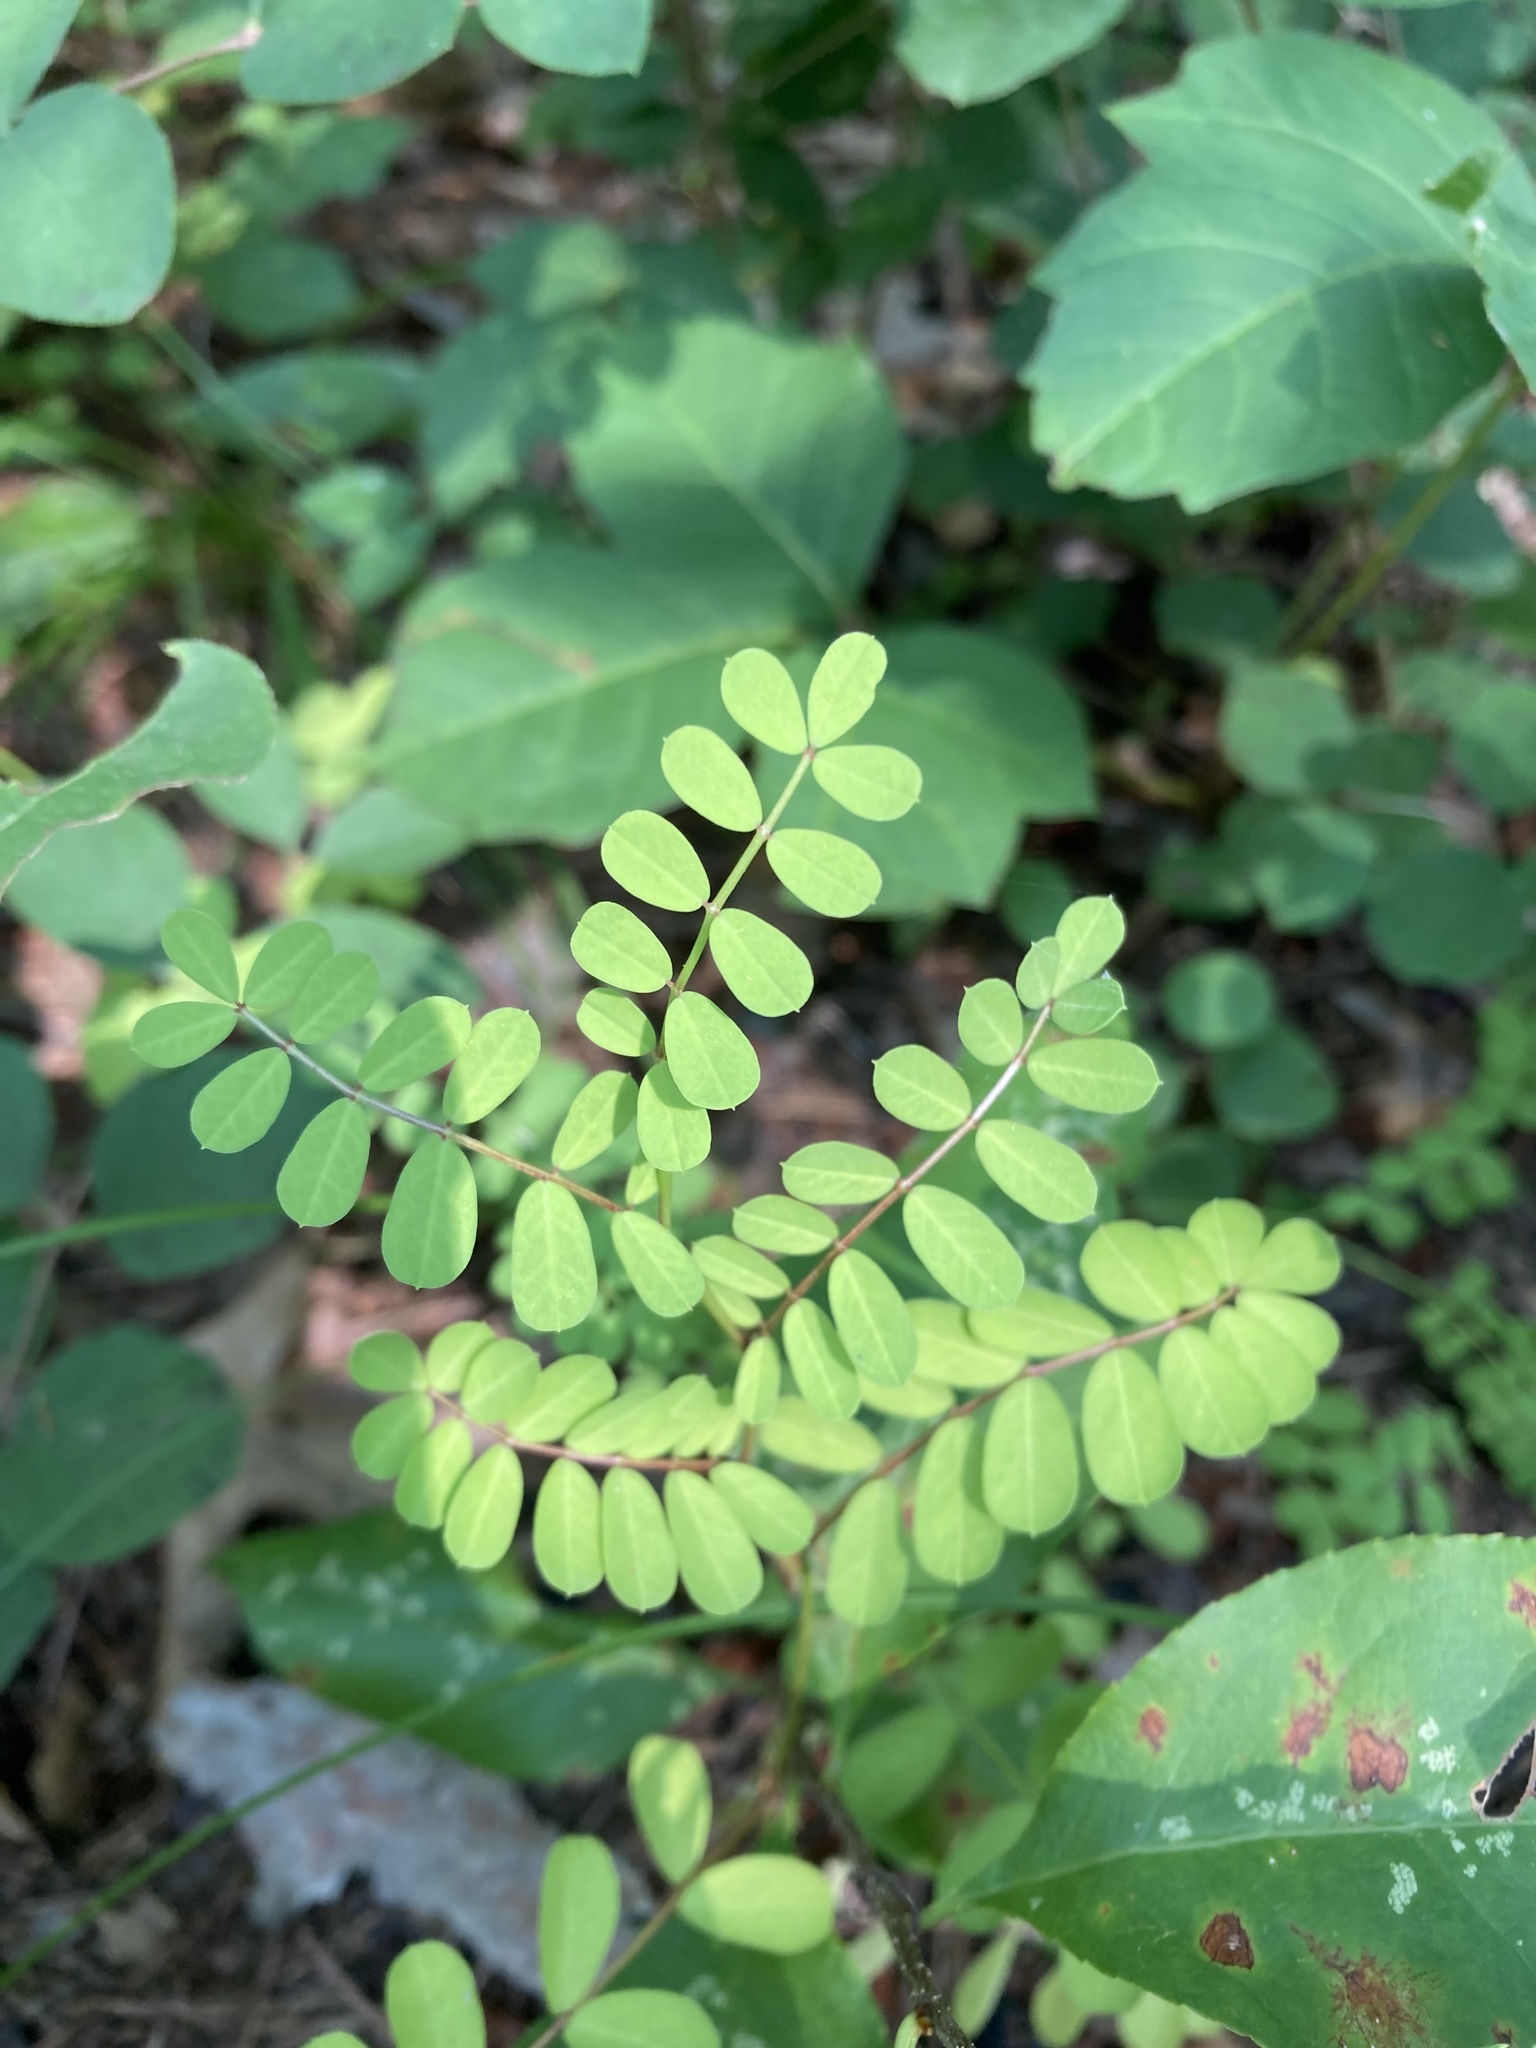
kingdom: Plantae
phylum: Tracheophyta
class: Magnoliopsida
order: Fabales
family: Fabaceae
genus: Coronilla
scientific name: Coronilla varia
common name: Crownvetch
